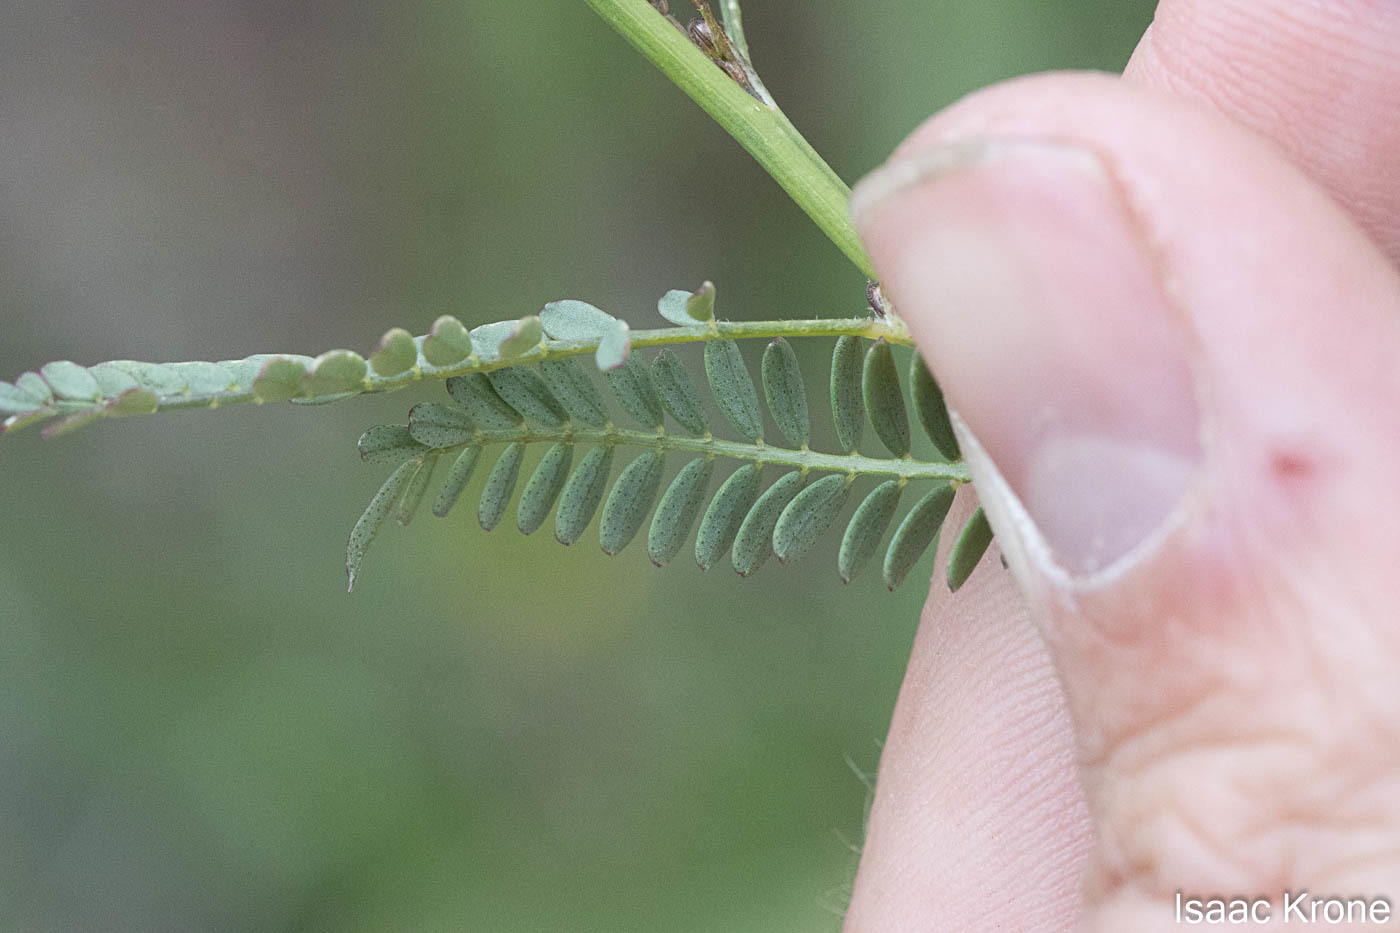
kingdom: Plantae
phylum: Tracheophyta
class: Magnoliopsida
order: Fabales
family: Fabaceae
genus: Dalea
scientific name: Dalea pringlei
